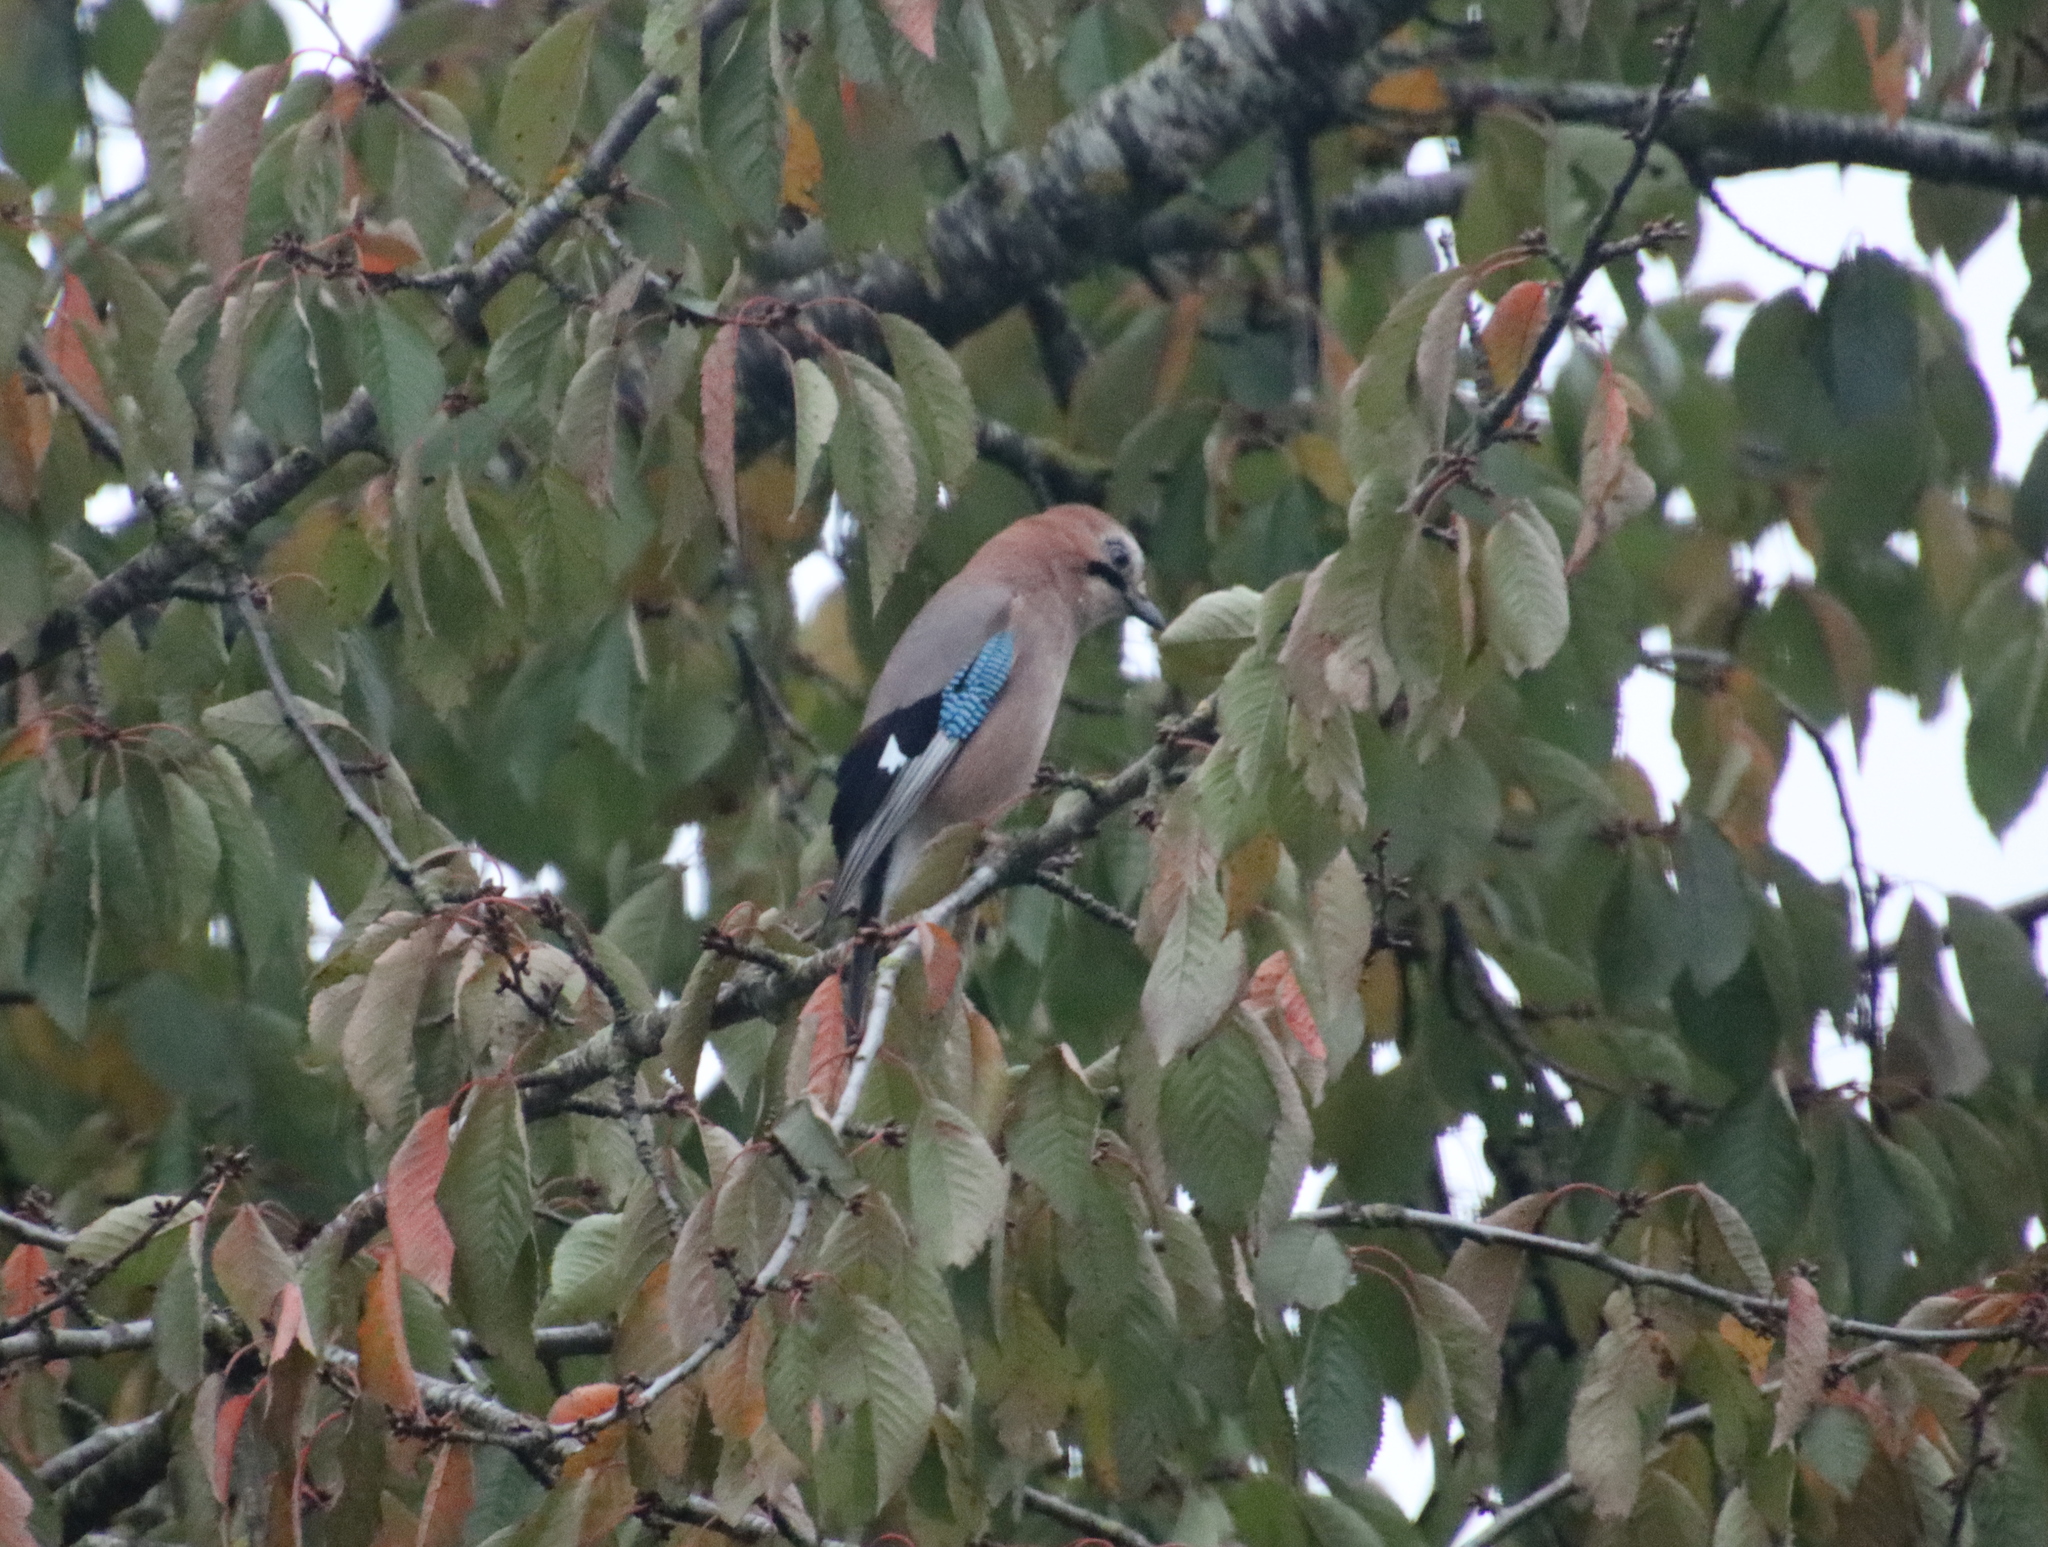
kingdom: Animalia
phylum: Chordata
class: Aves
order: Passeriformes
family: Corvidae
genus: Garrulus
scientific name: Garrulus glandarius
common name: Eurasian jay
